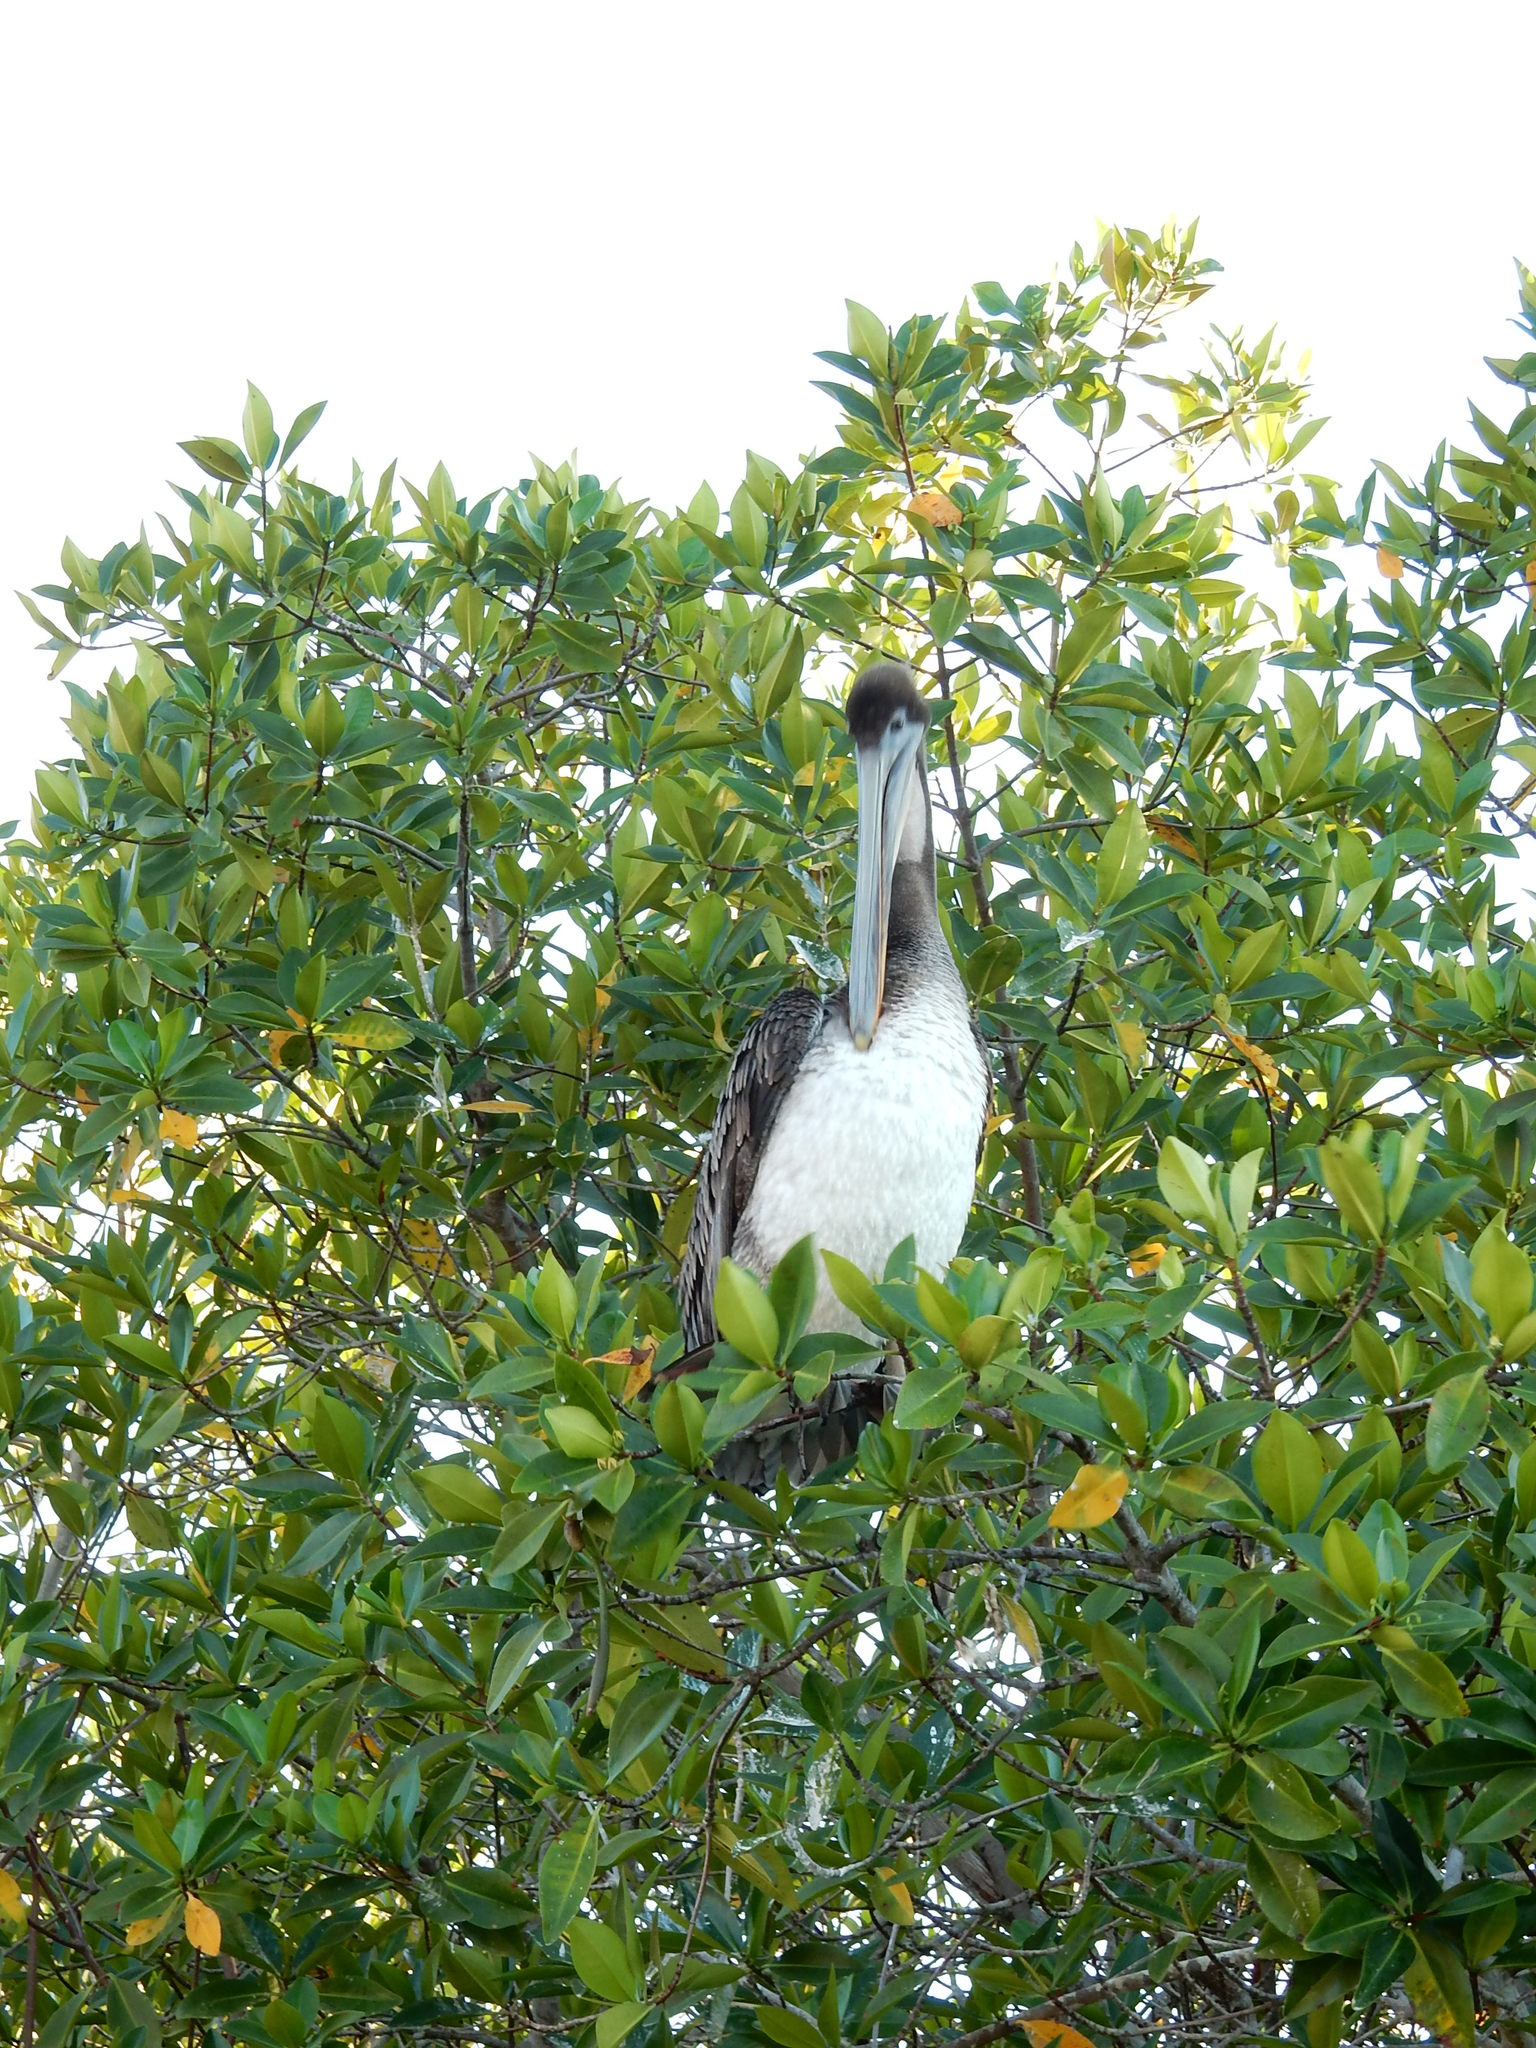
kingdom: Animalia
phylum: Chordata
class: Aves
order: Pelecaniformes
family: Pelecanidae
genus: Pelecanus
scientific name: Pelecanus occidentalis
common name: Brown pelican
